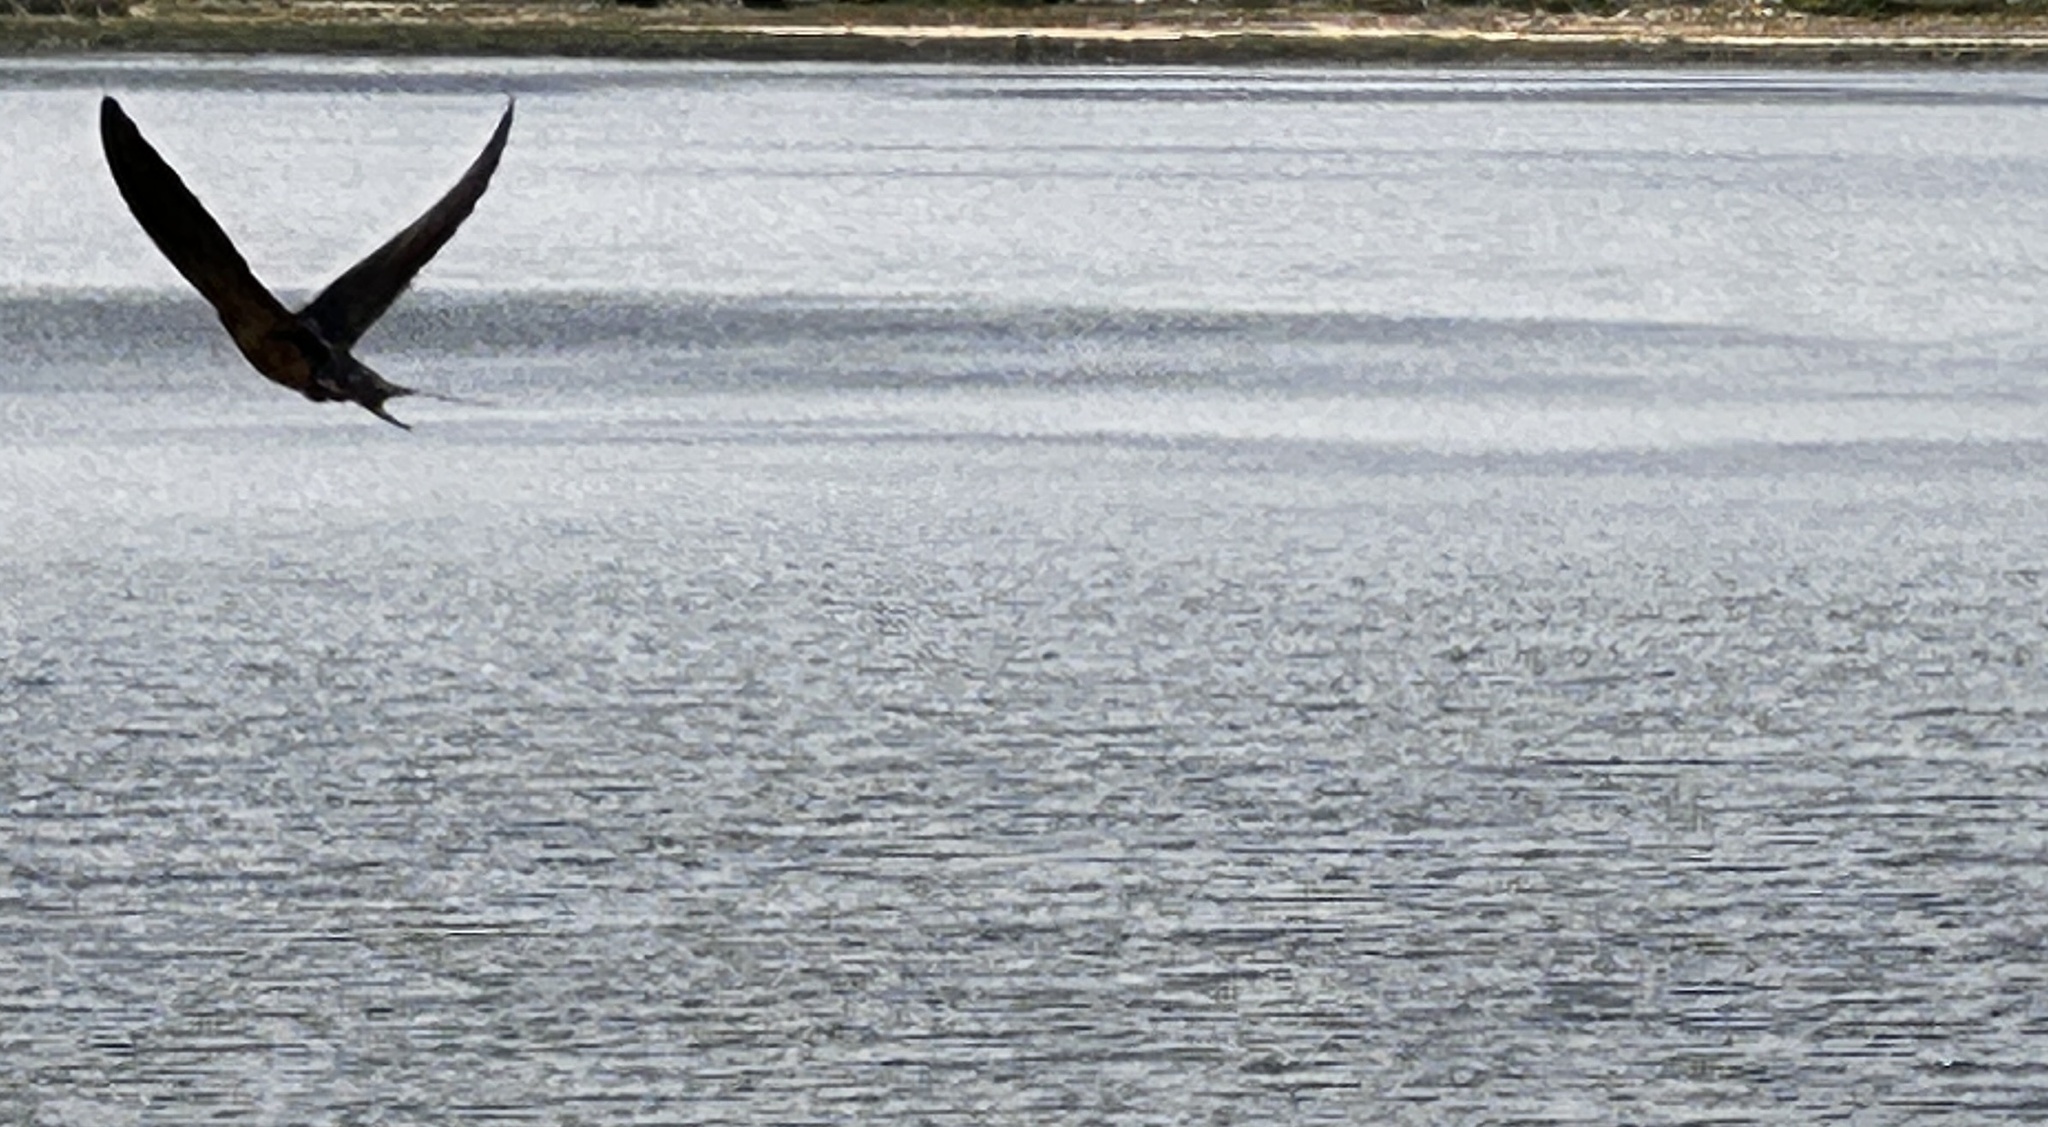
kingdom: Animalia
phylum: Chordata
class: Aves
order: Passeriformes
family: Hirundinidae
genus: Hirundo
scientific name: Hirundo rustica
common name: Barn swallow
